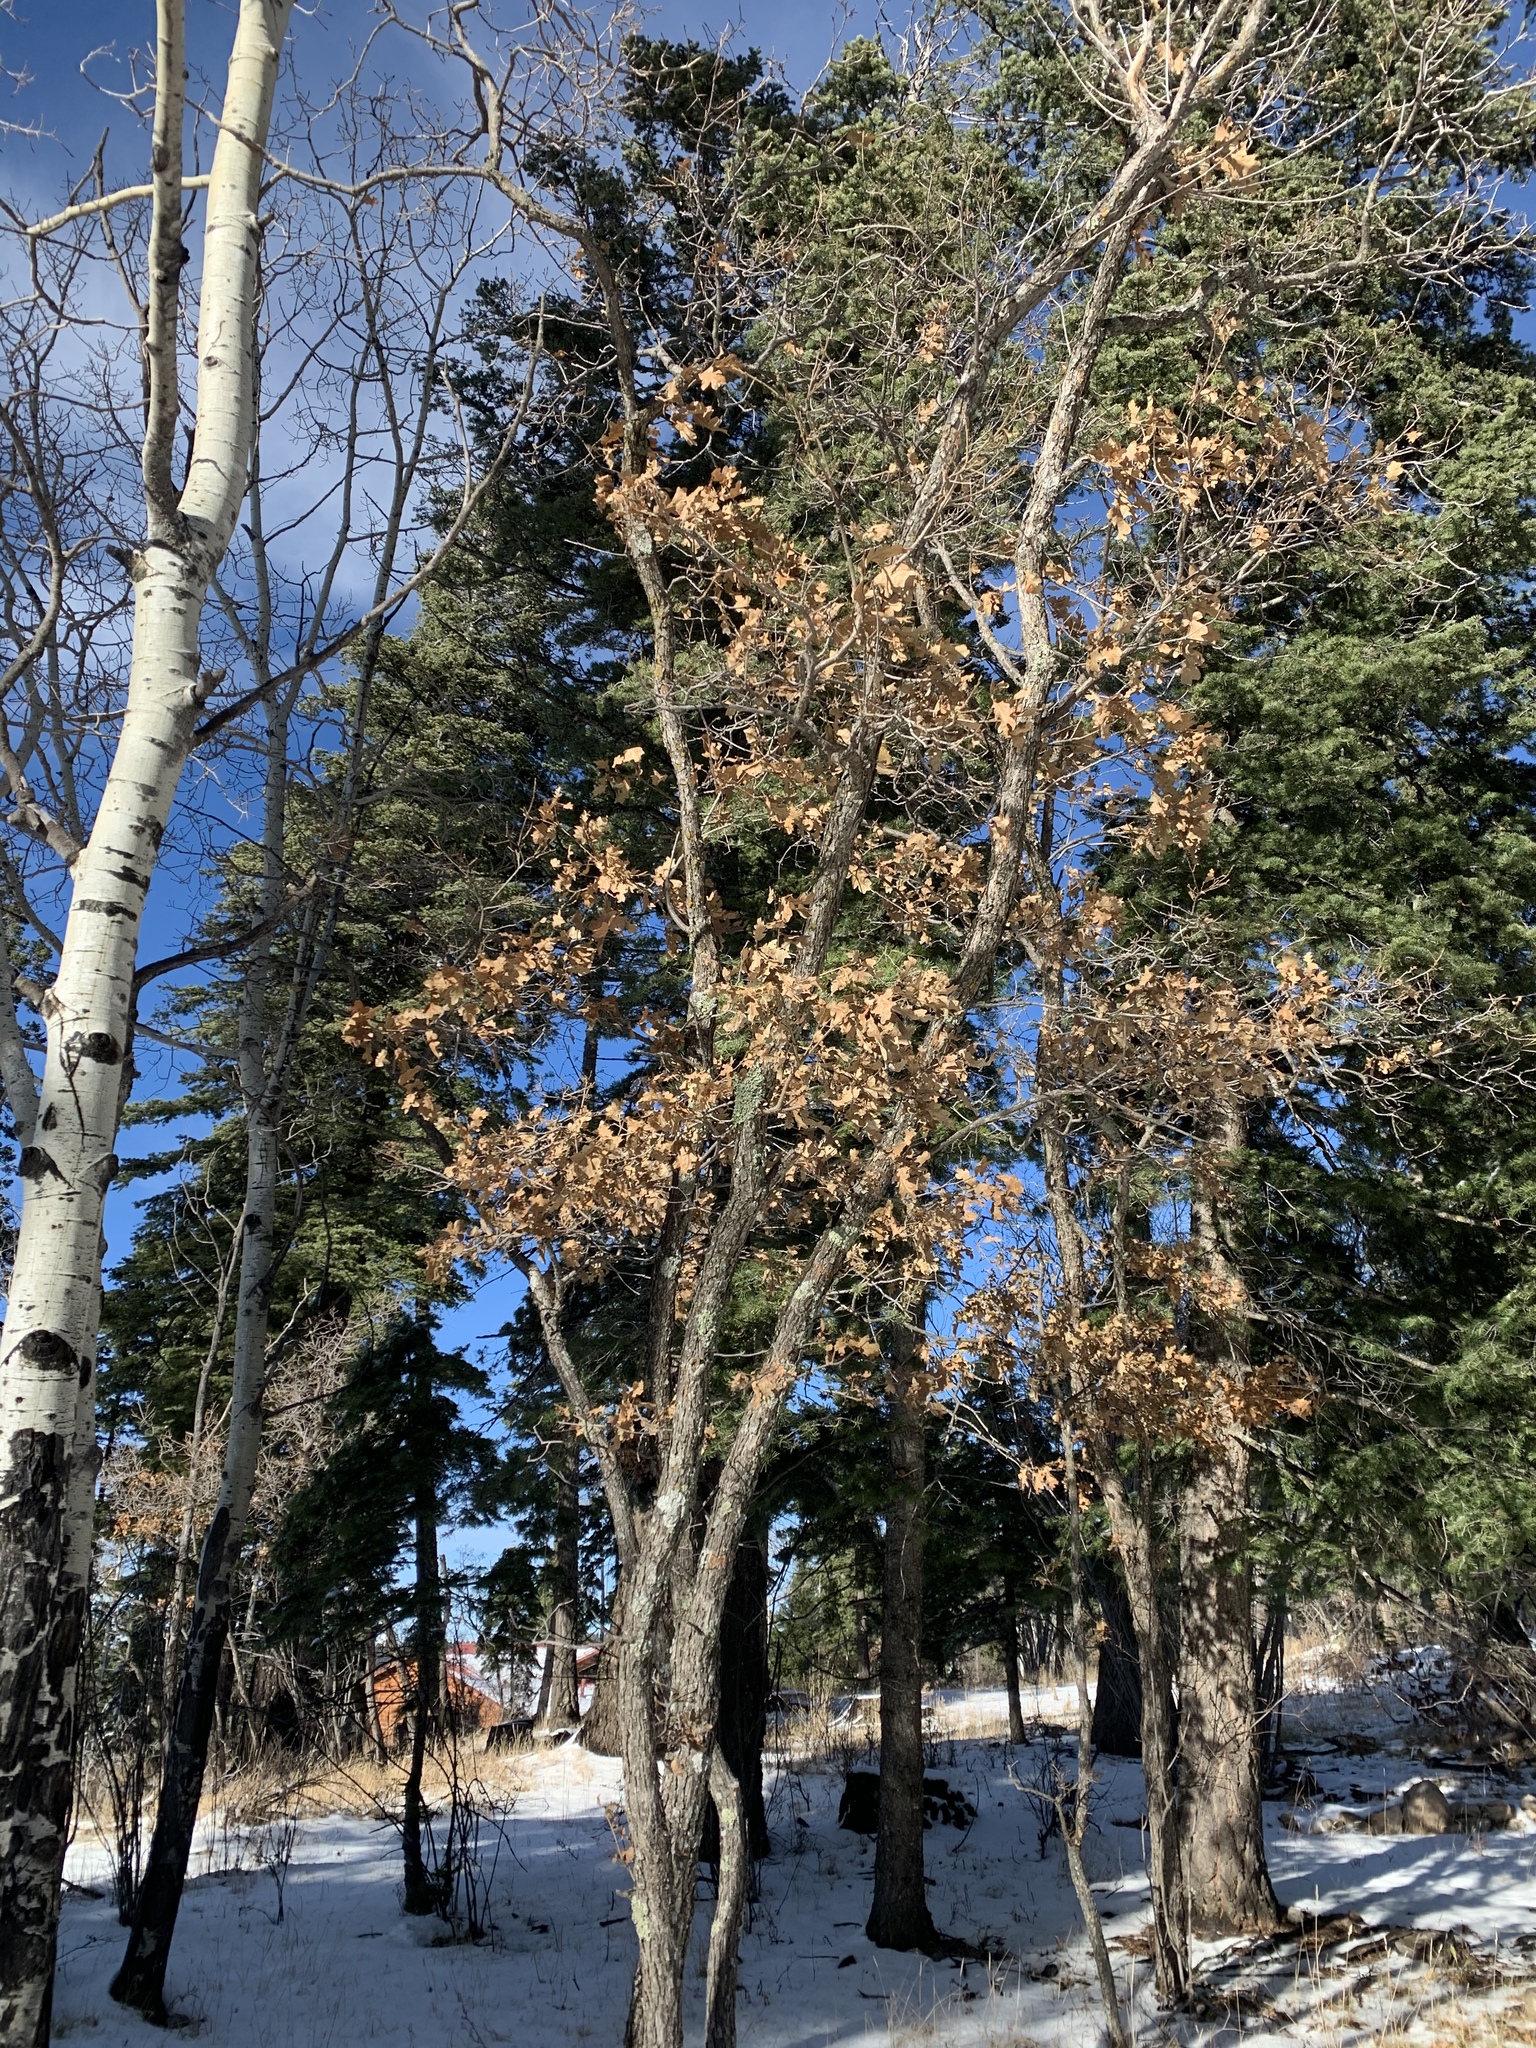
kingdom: Plantae
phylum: Tracheophyta
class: Magnoliopsida
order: Fagales
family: Fagaceae
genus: Quercus
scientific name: Quercus gambelii
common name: Gambel oak
